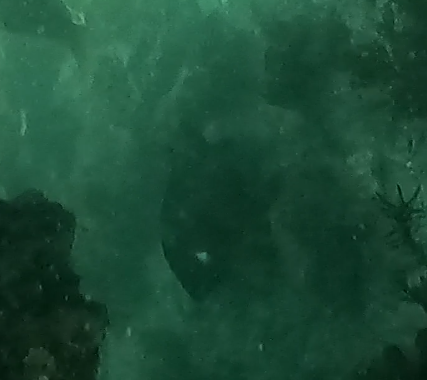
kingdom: Animalia
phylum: Chordata
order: Perciformes
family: Pomacentridae
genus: Parma
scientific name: Parma microlepis
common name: White-ear
